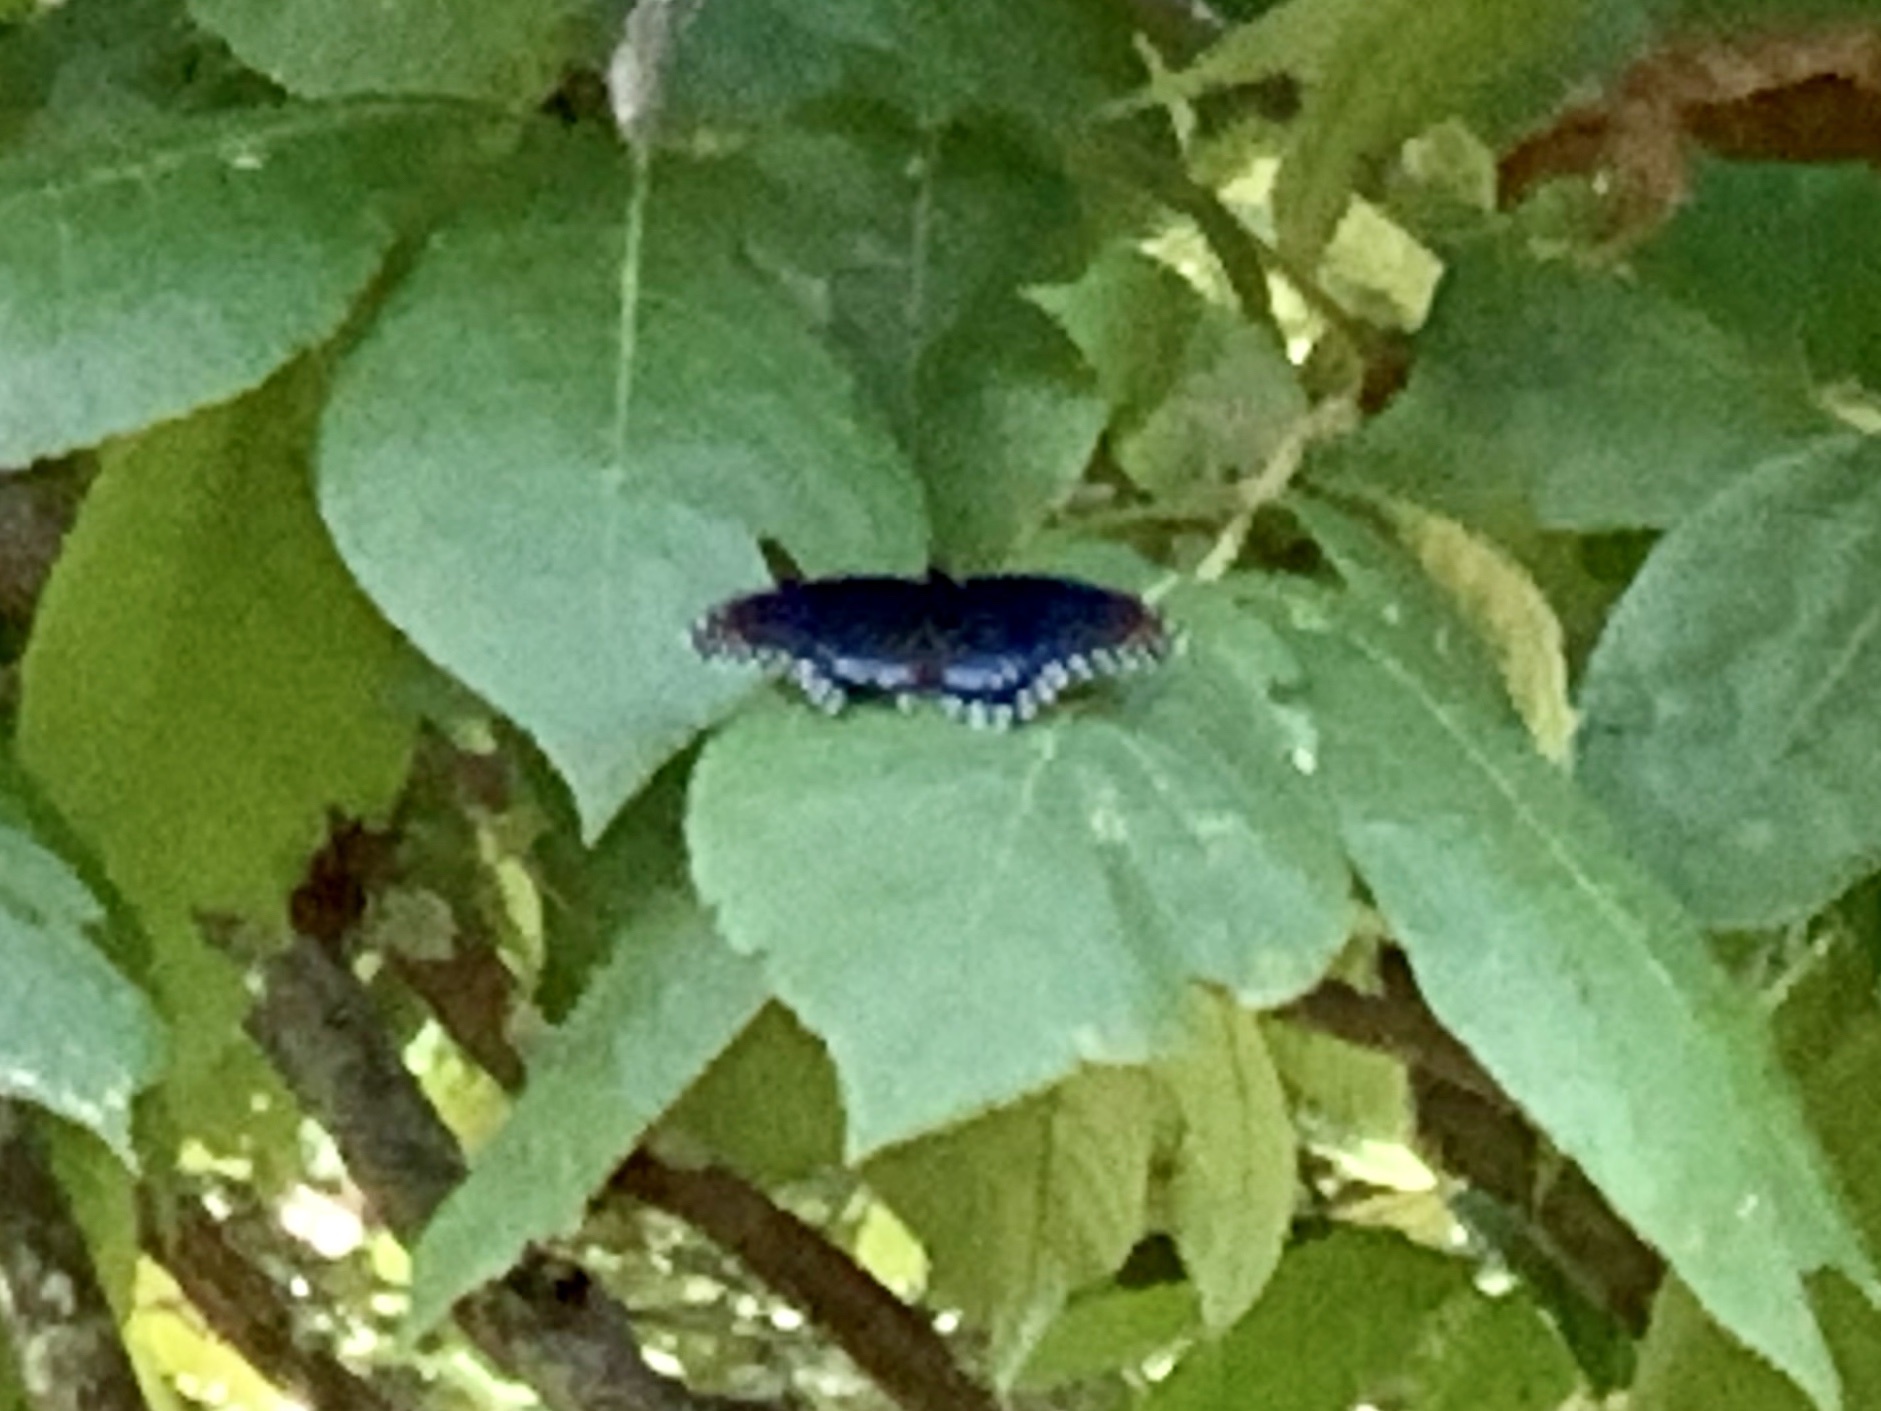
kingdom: Animalia
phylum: Arthropoda
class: Insecta
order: Lepidoptera
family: Nymphalidae
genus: Limenitis
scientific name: Limenitis arthemis
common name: Red-spotted admiral
